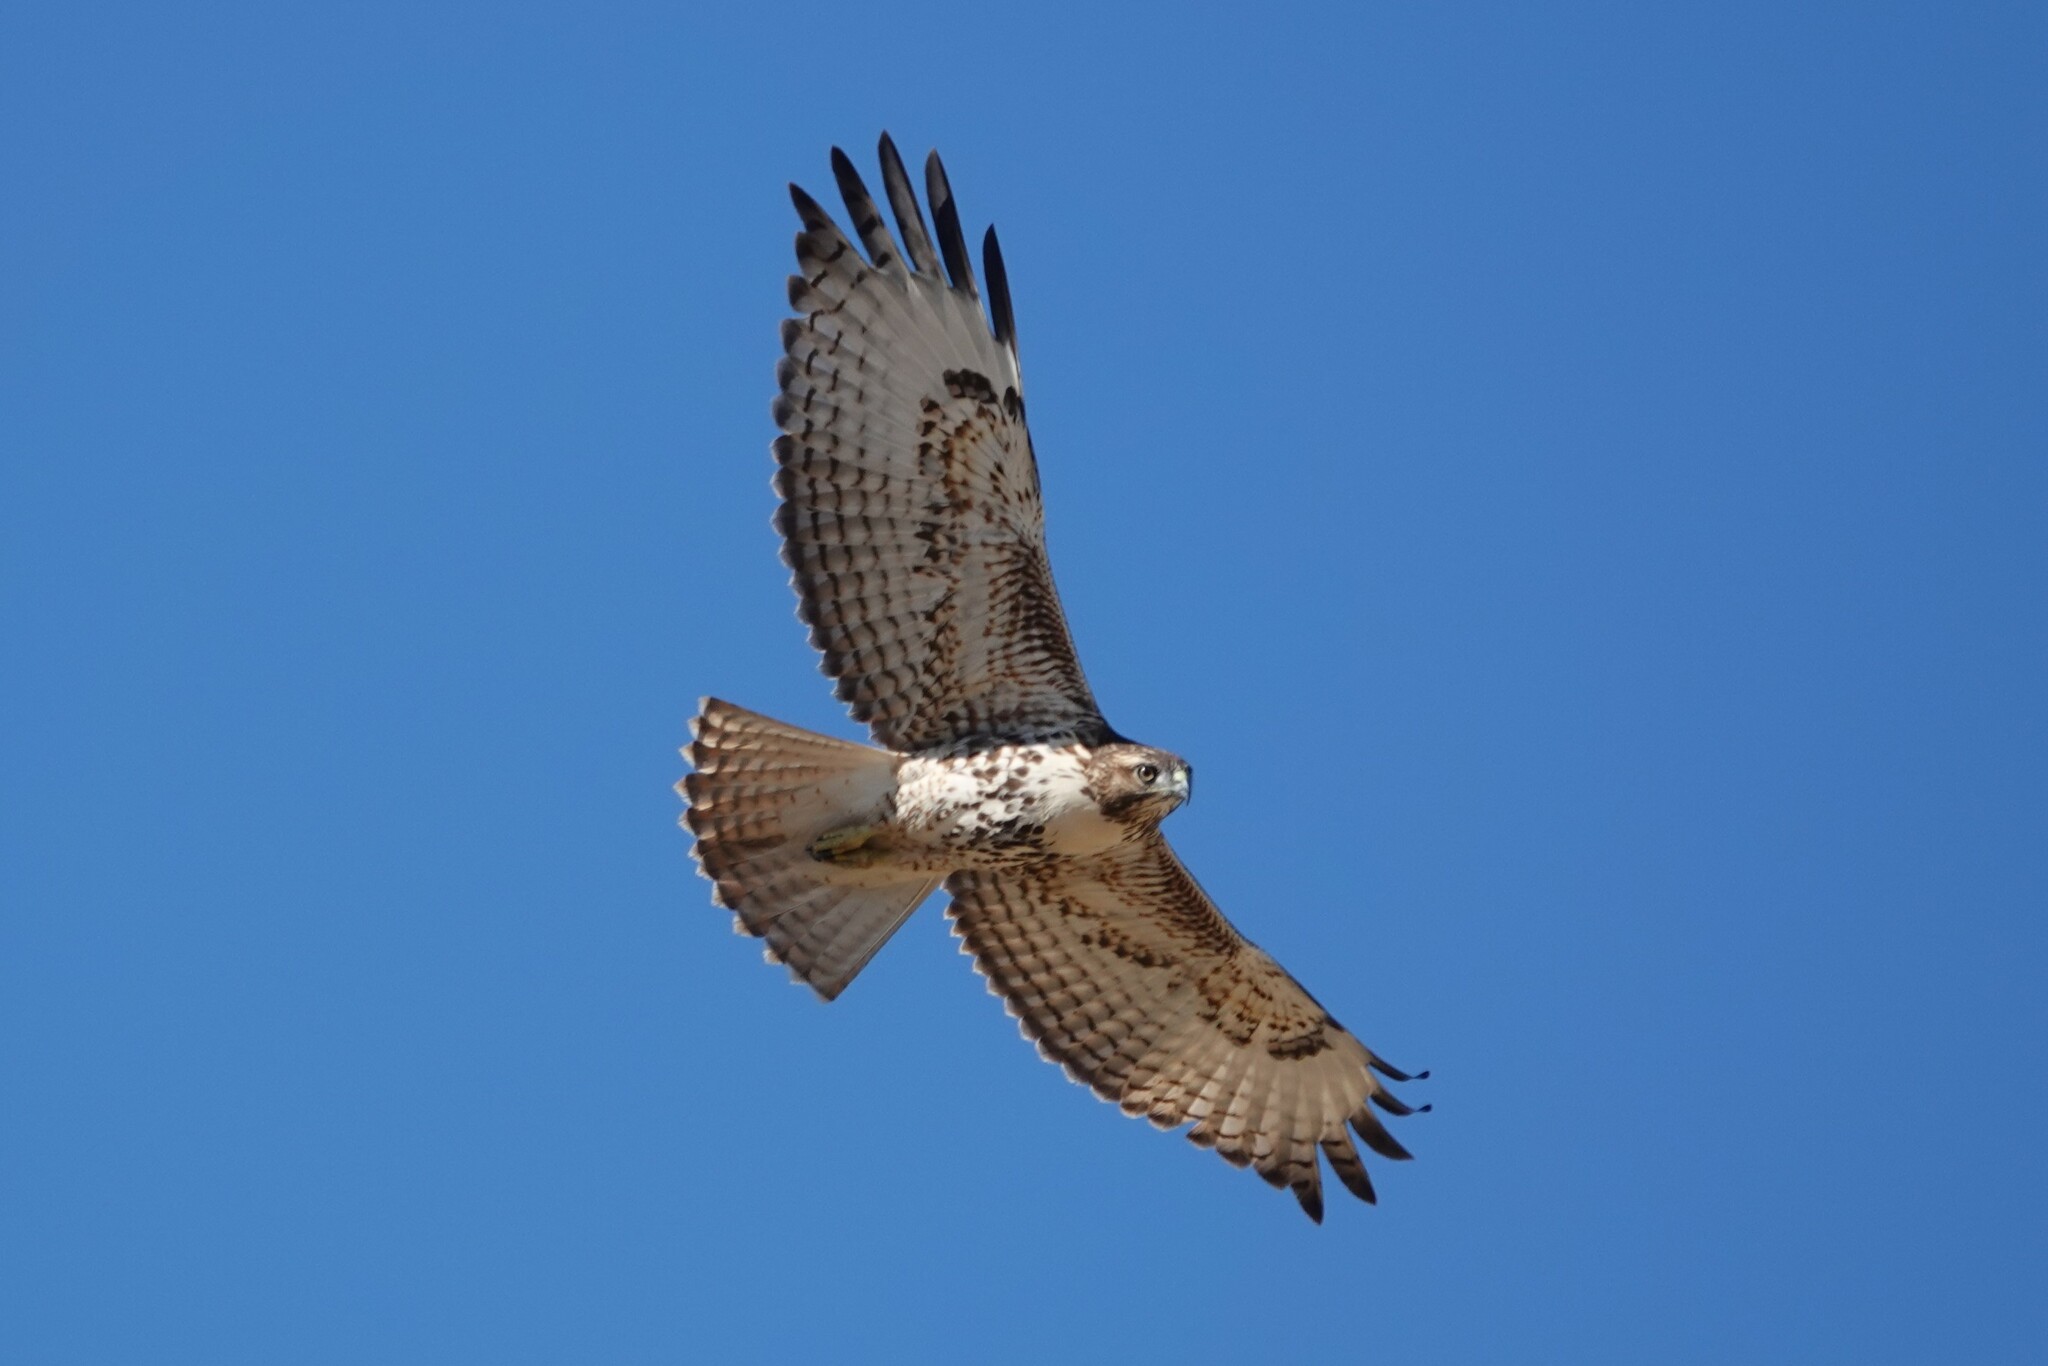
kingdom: Animalia
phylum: Chordata
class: Aves
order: Accipitriformes
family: Accipitridae
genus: Buteo
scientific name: Buteo jamaicensis
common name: Red-tailed hawk
